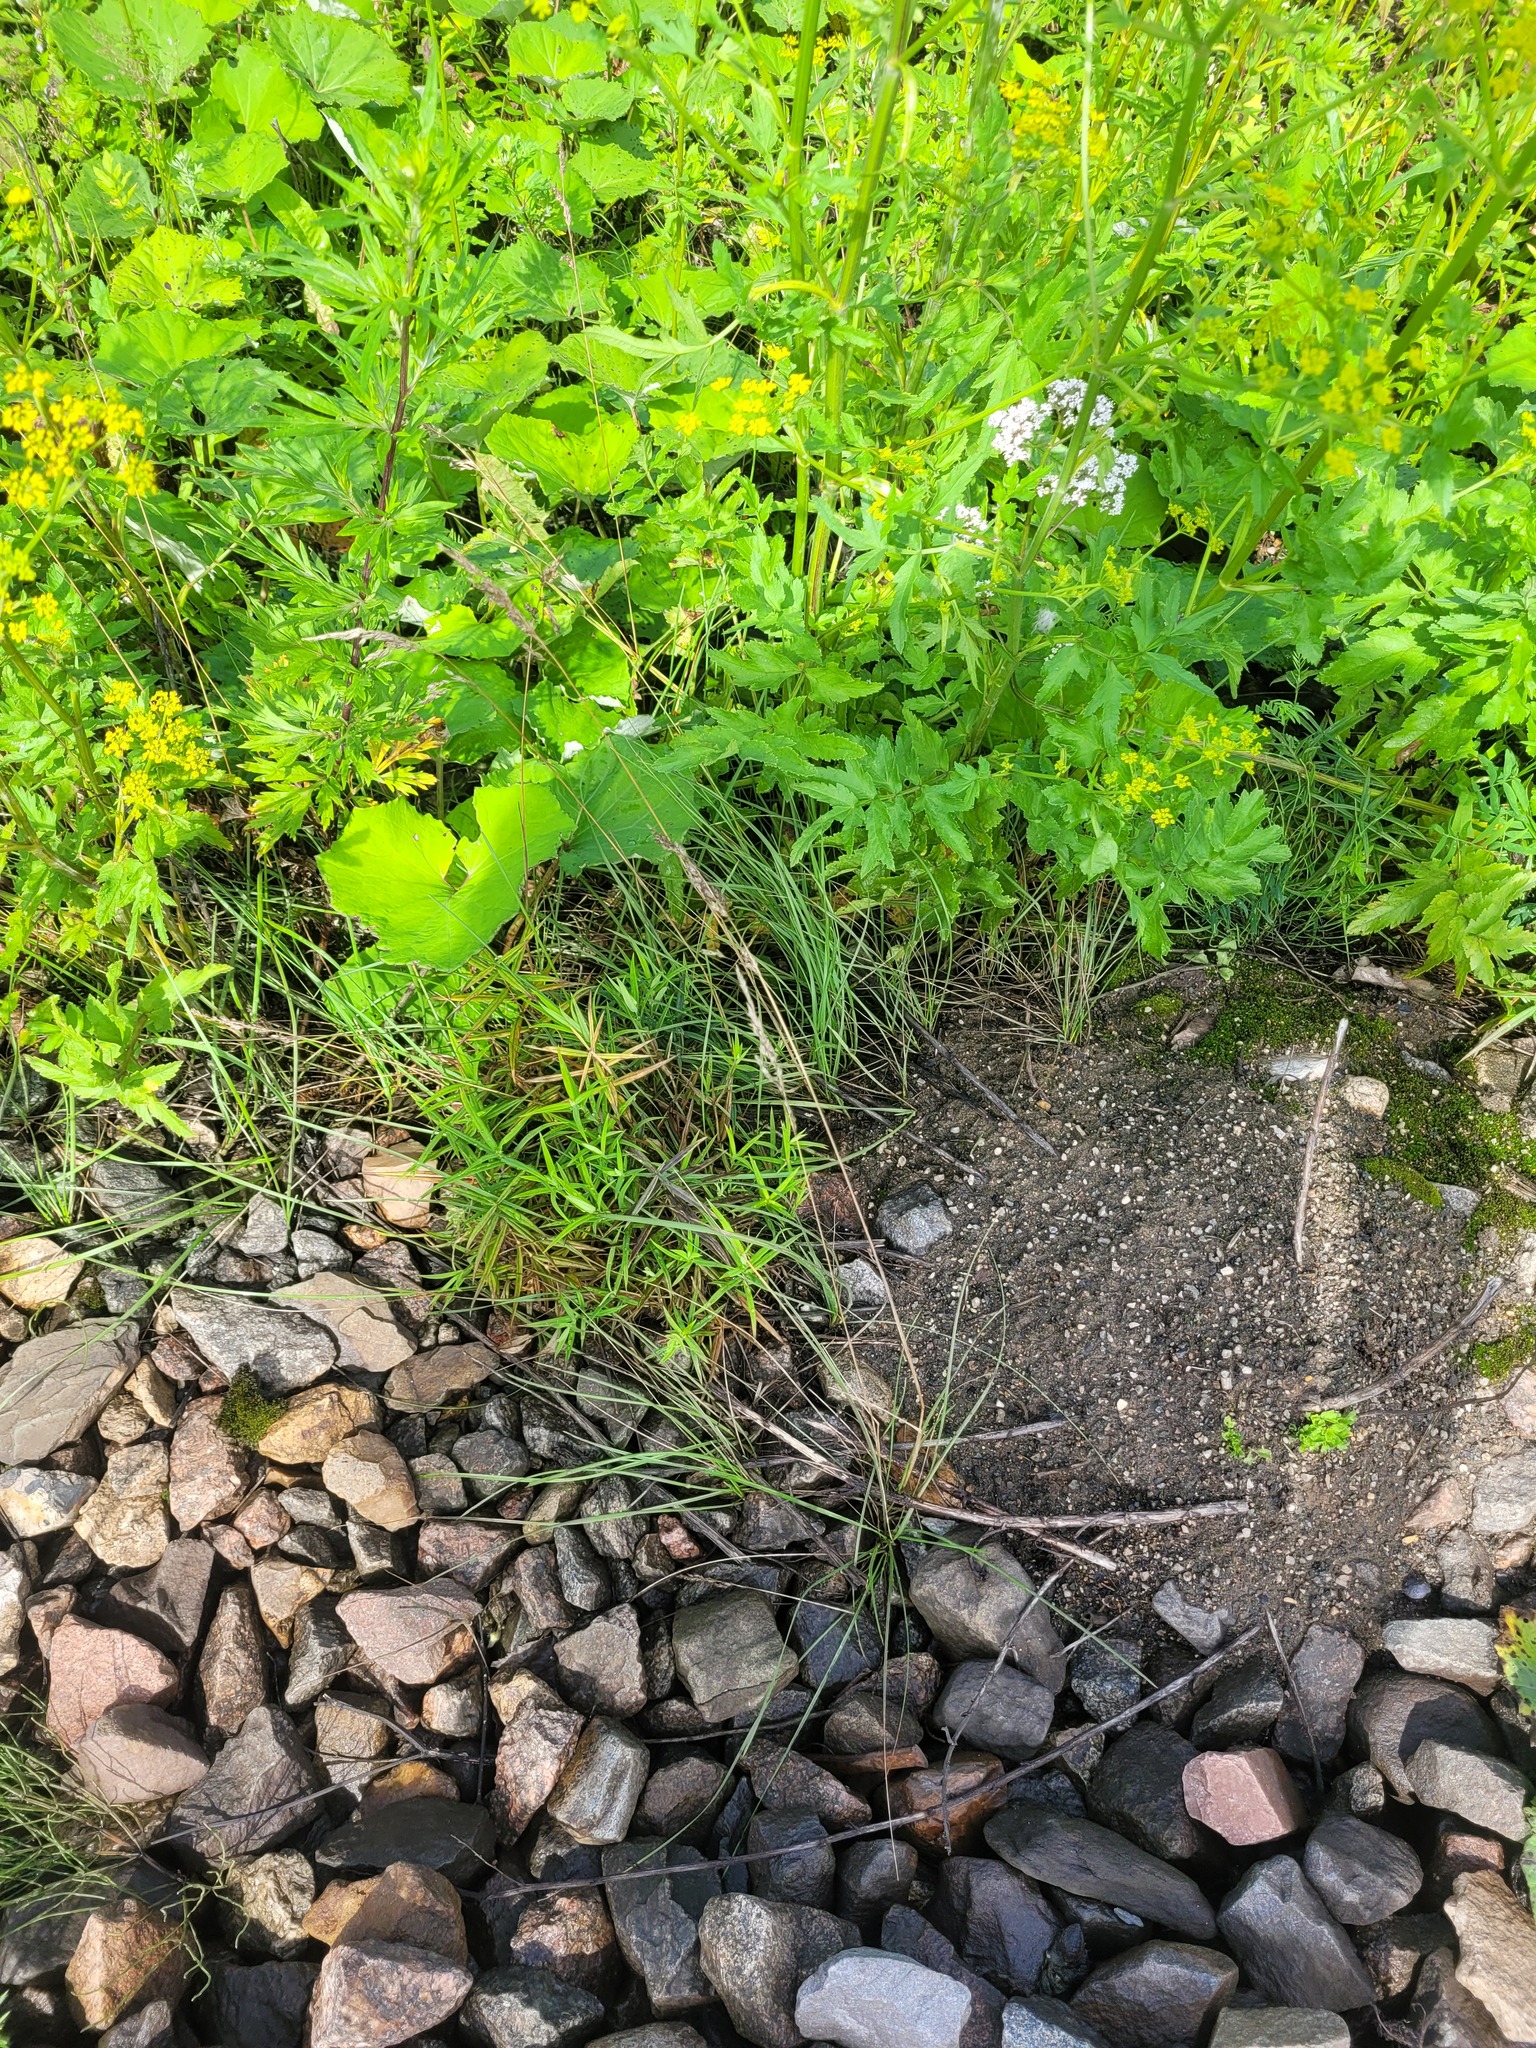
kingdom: Plantae
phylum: Tracheophyta
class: Liliopsida
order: Poales
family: Poaceae
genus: Poa
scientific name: Poa angustifolia
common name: Narrow-leaved meadow-grass
